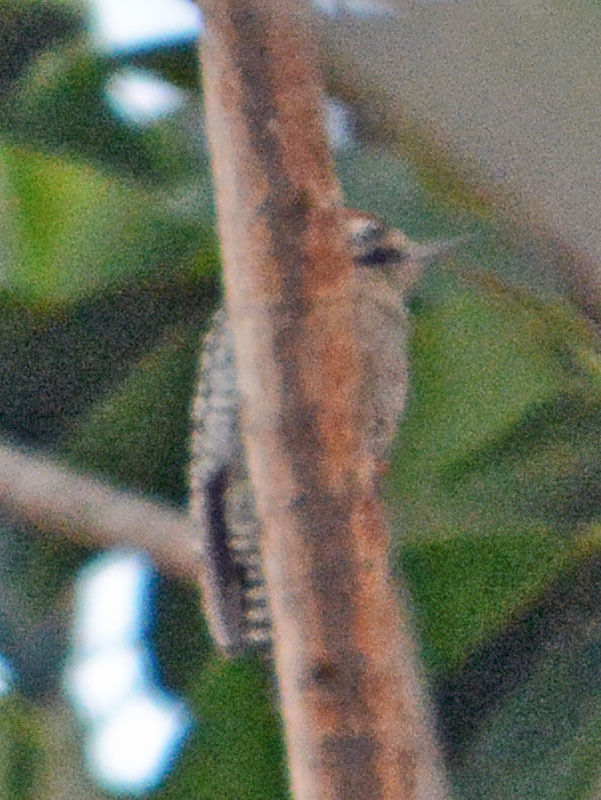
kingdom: Animalia
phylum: Chordata
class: Aves
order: Piciformes
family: Picidae
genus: Dryobates
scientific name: Dryobates scalaris
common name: Ladder-backed woodpecker
